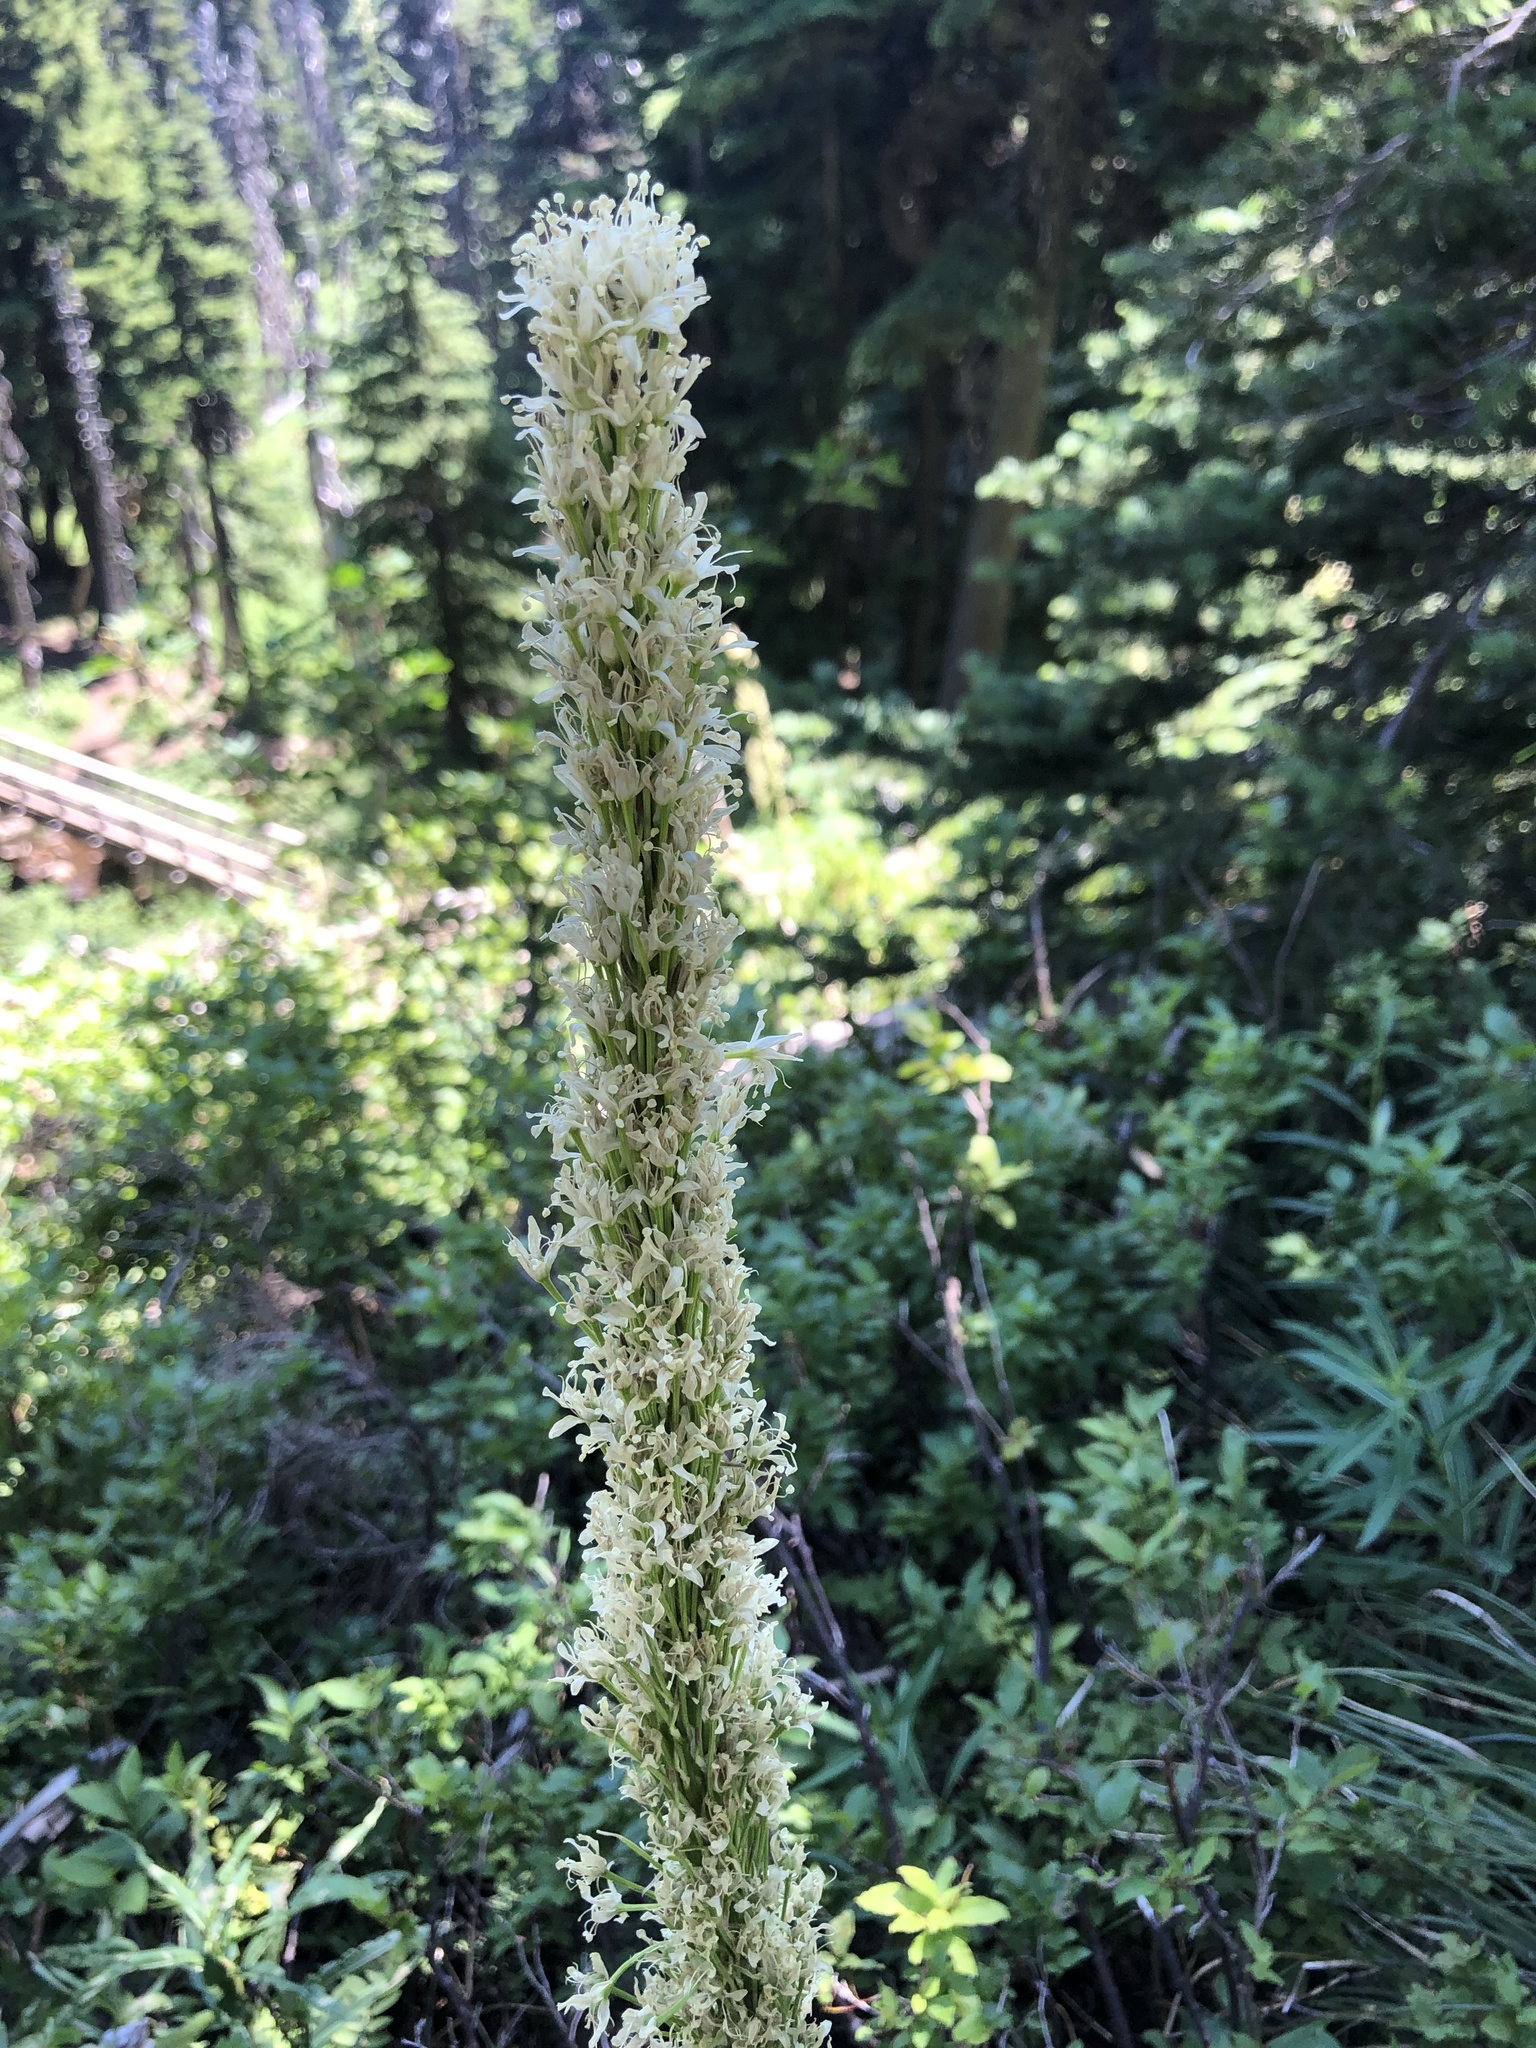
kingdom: Plantae
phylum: Tracheophyta
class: Liliopsida
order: Liliales
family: Melanthiaceae
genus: Xerophyllum
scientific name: Xerophyllum tenax
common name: Bear-grass
